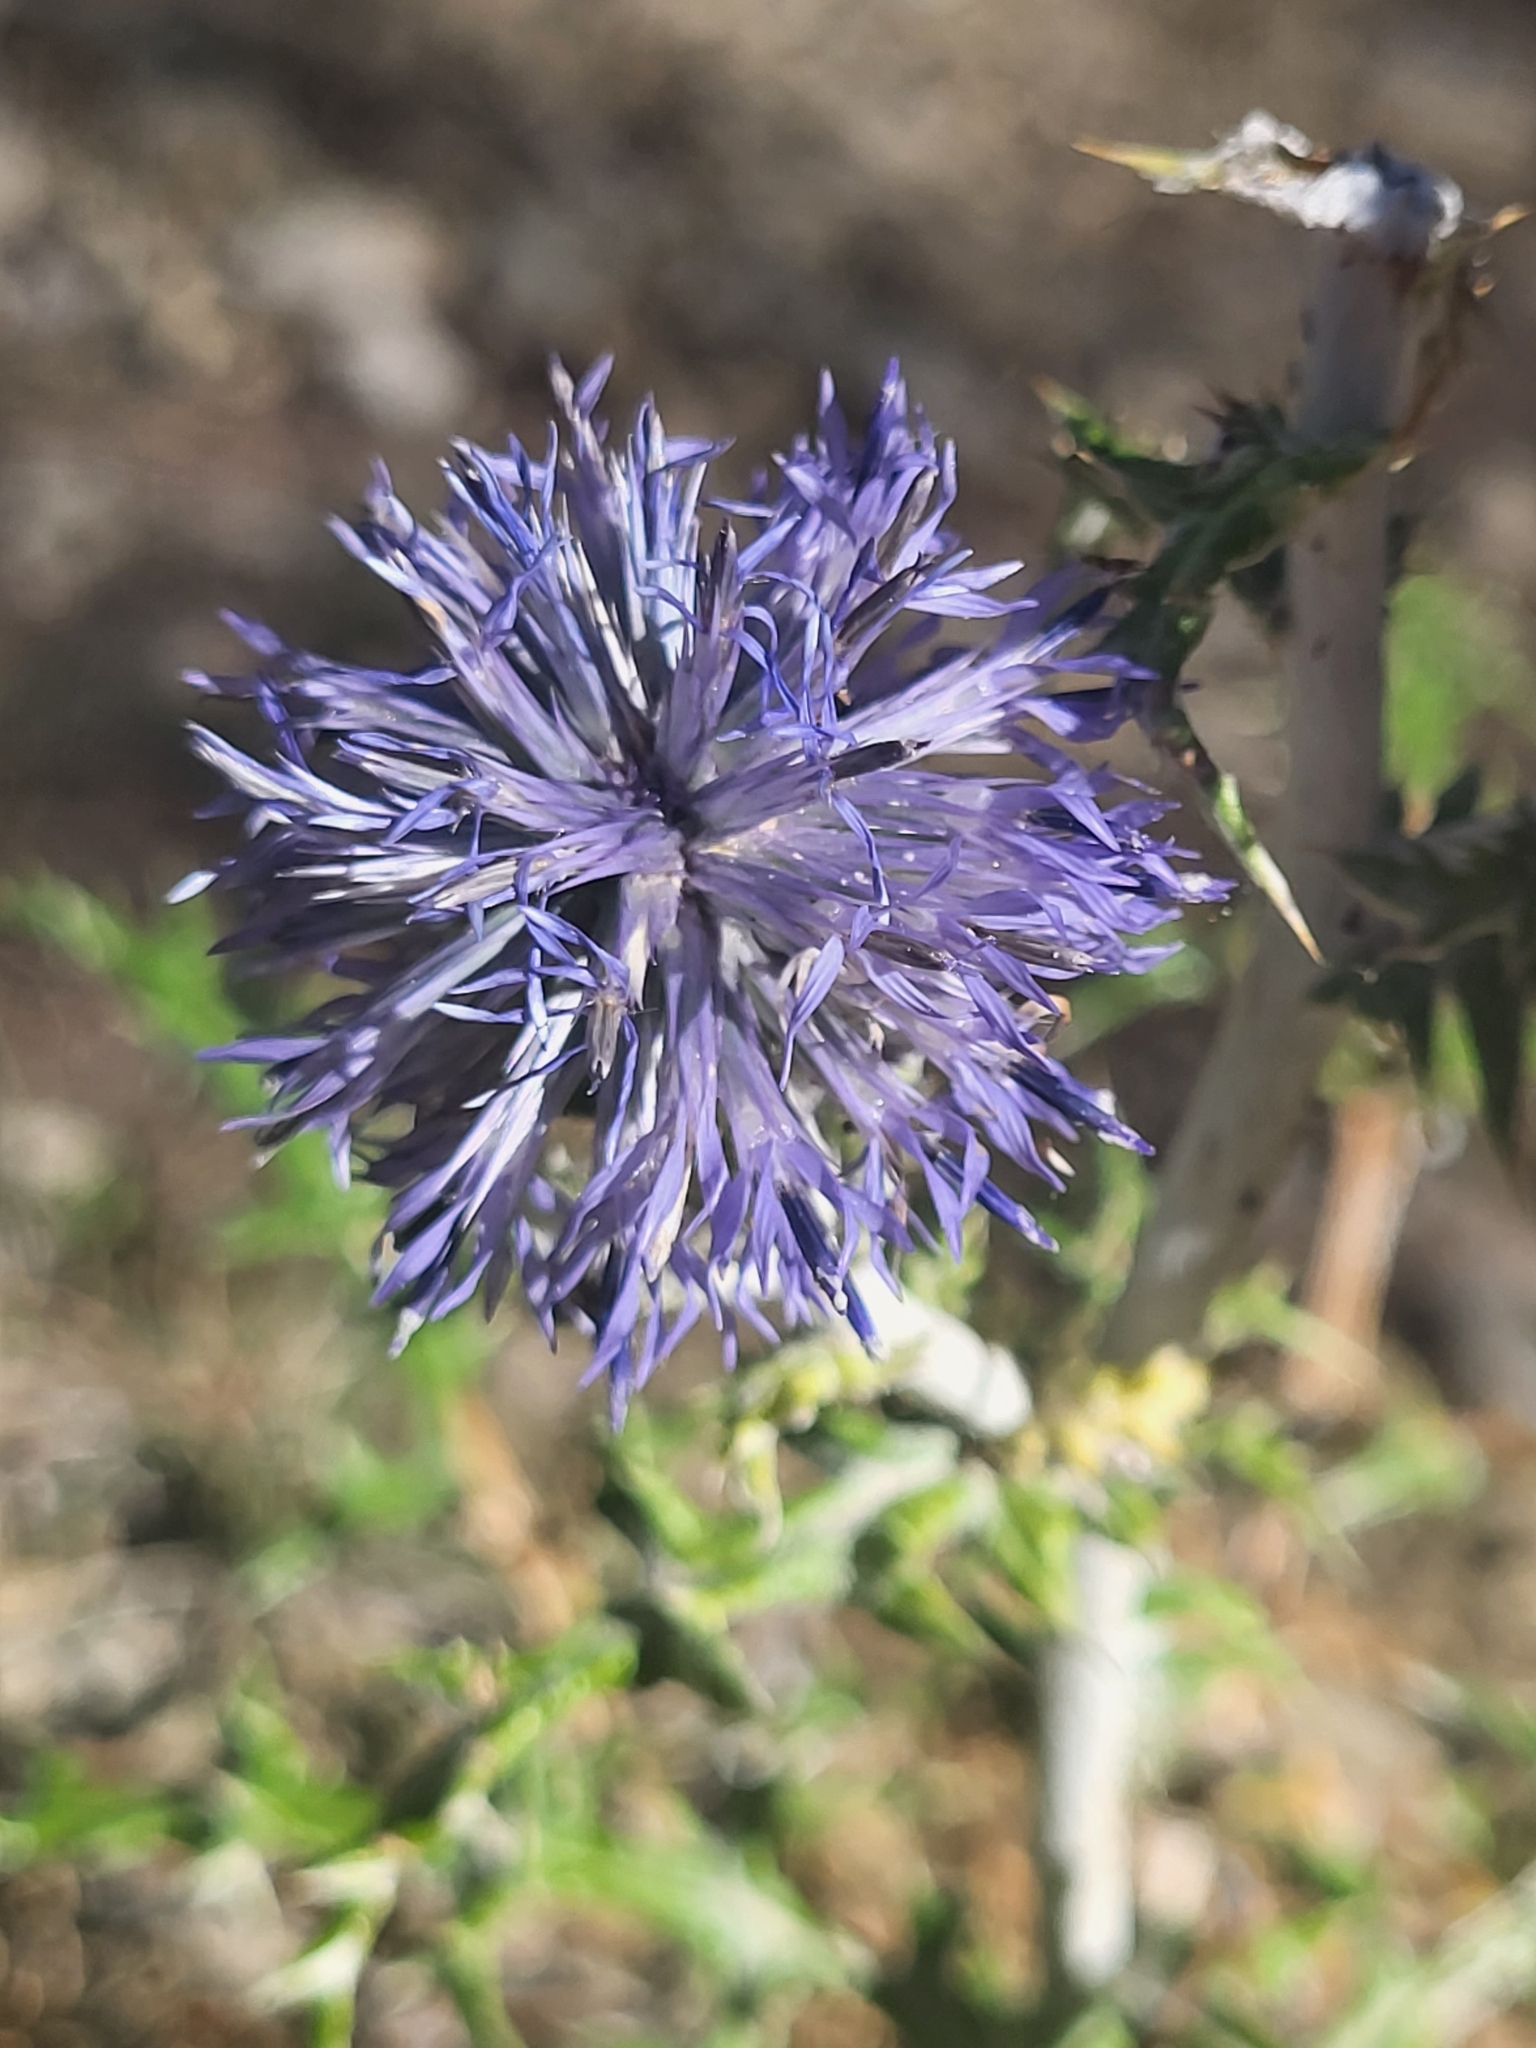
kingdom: Plantae
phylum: Tracheophyta
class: Magnoliopsida
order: Asterales
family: Asteraceae
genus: Echinops
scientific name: Echinops ritro
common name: Globe thistle
